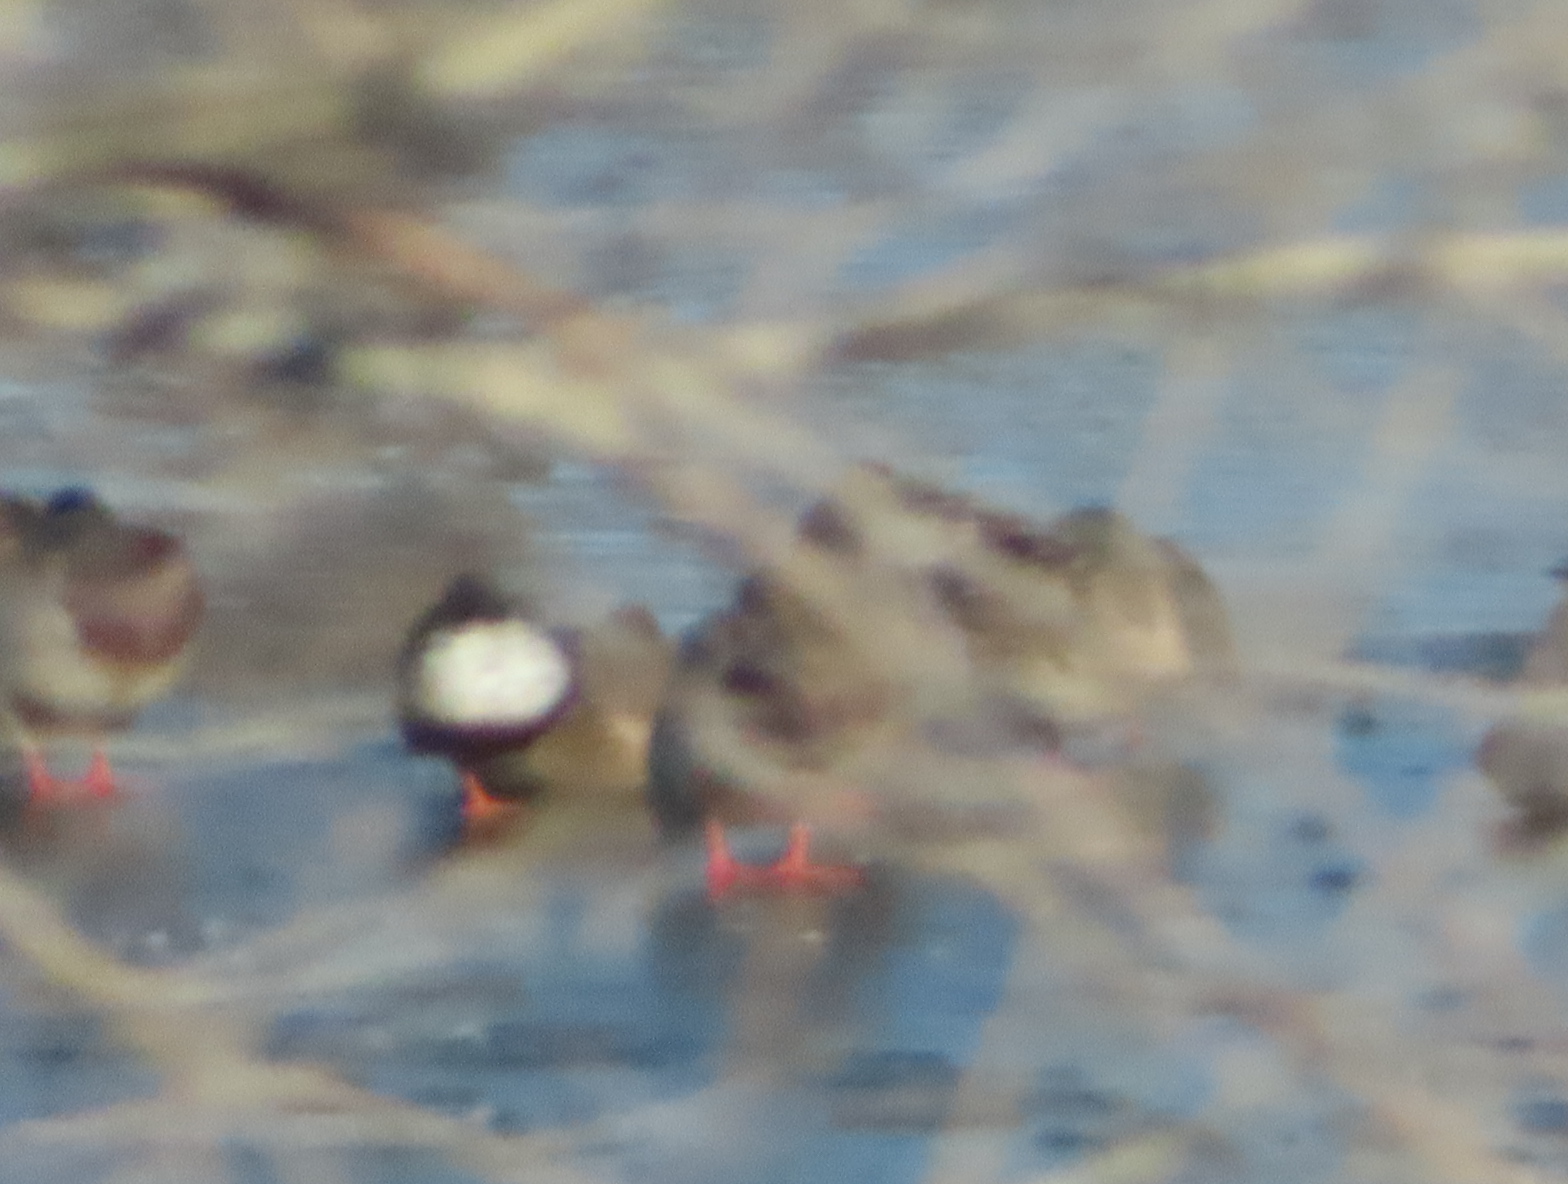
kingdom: Animalia
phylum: Chordata
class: Aves
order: Anseriformes
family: Anatidae
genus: Spatula
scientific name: Spatula clypeata
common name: Northern shoveler
